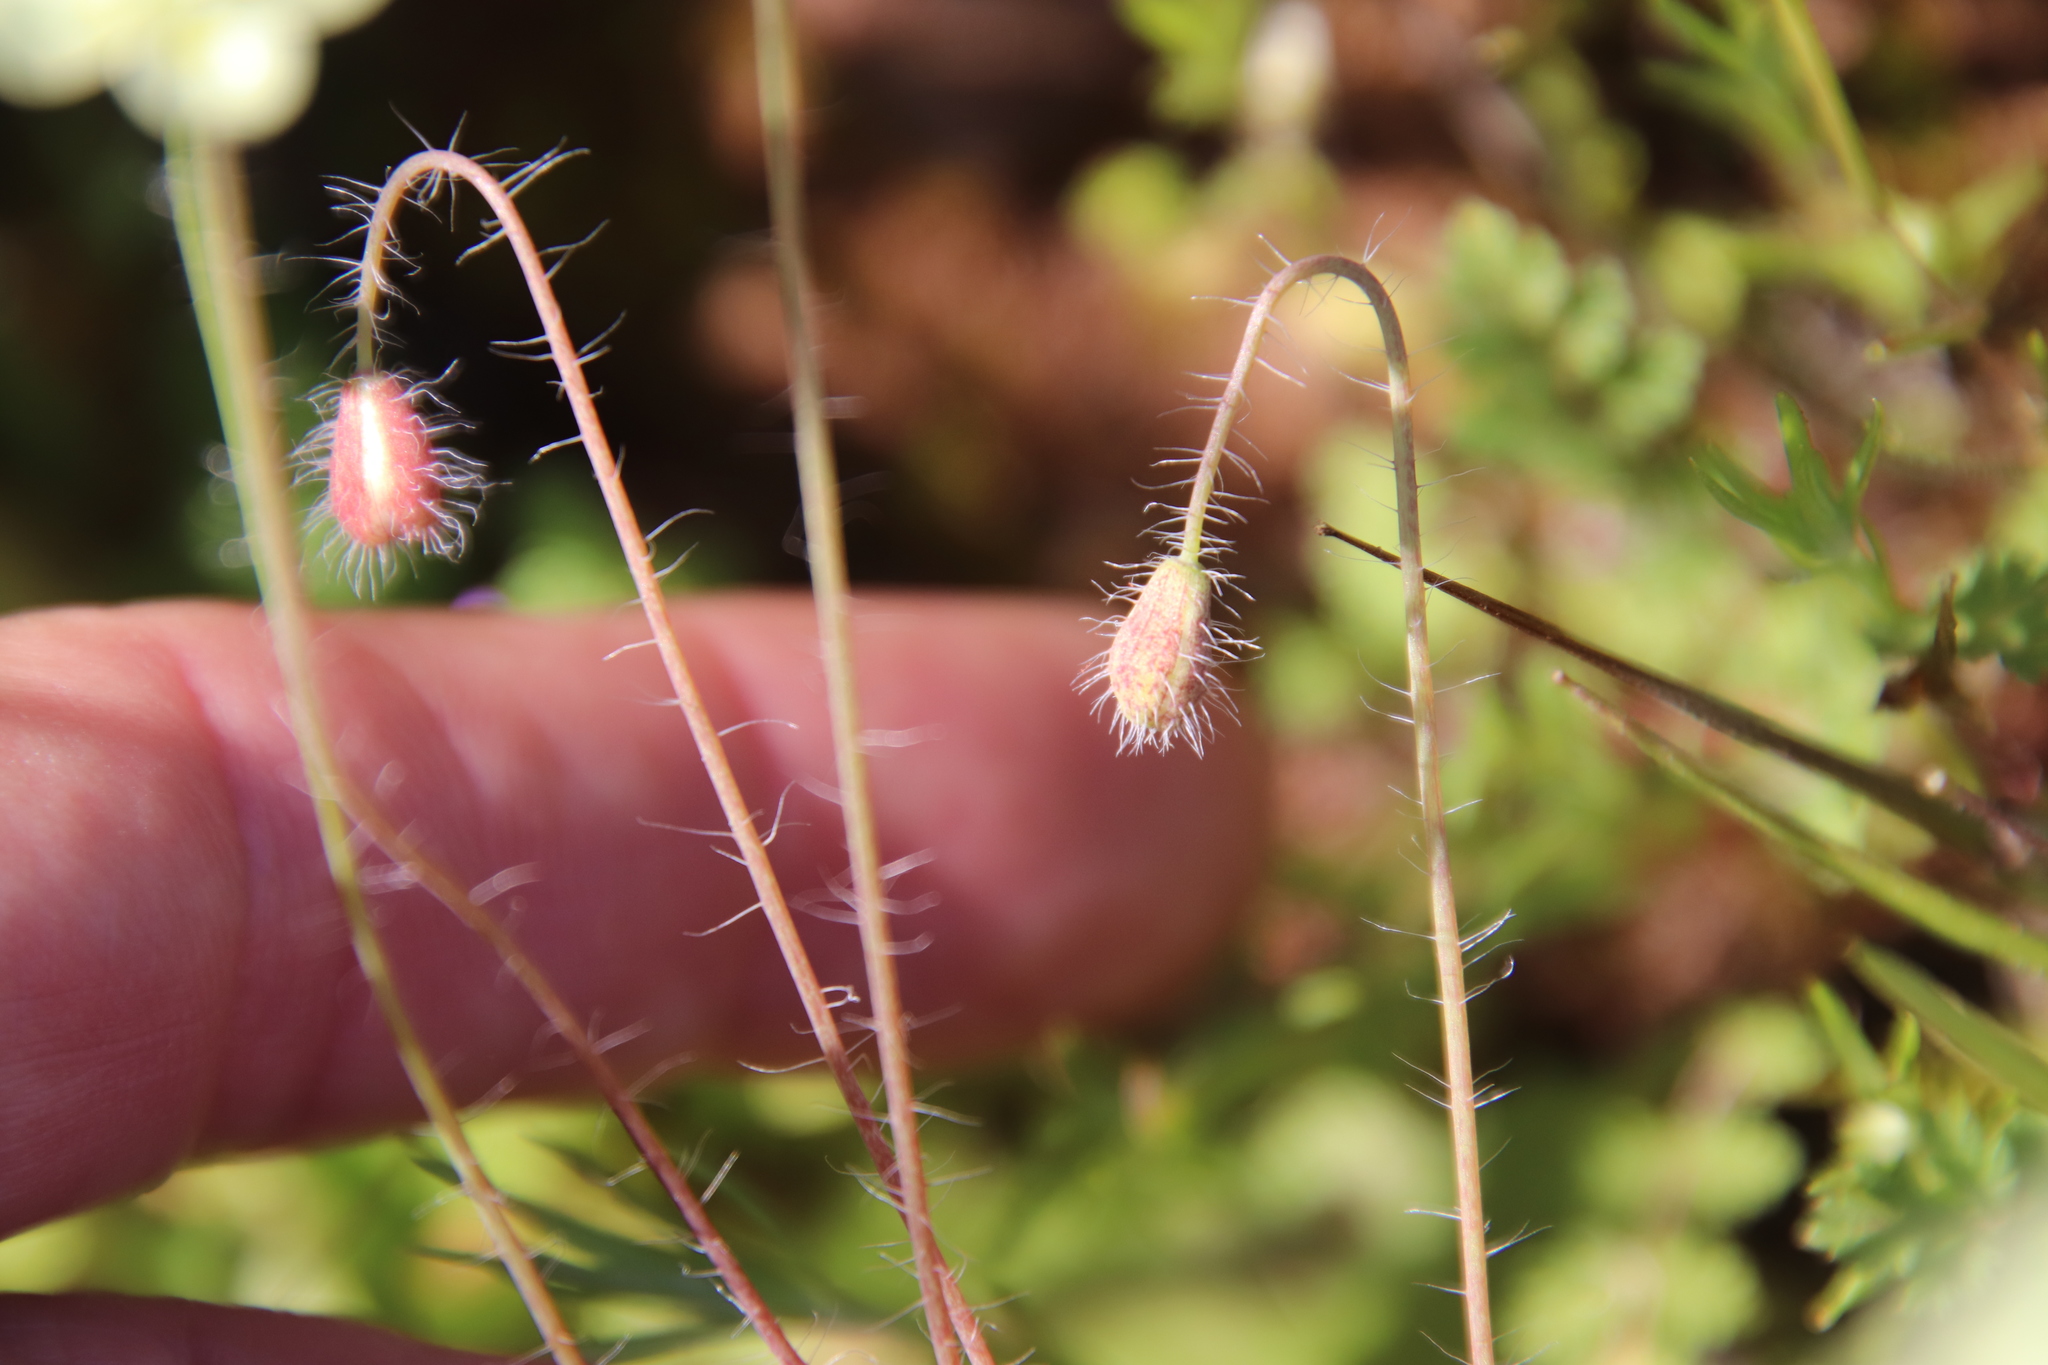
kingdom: Plantae
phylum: Tracheophyta
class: Magnoliopsida
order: Ranunculales
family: Papaveraceae
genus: Platystemon
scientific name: Platystemon californicus
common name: Cream-cups
